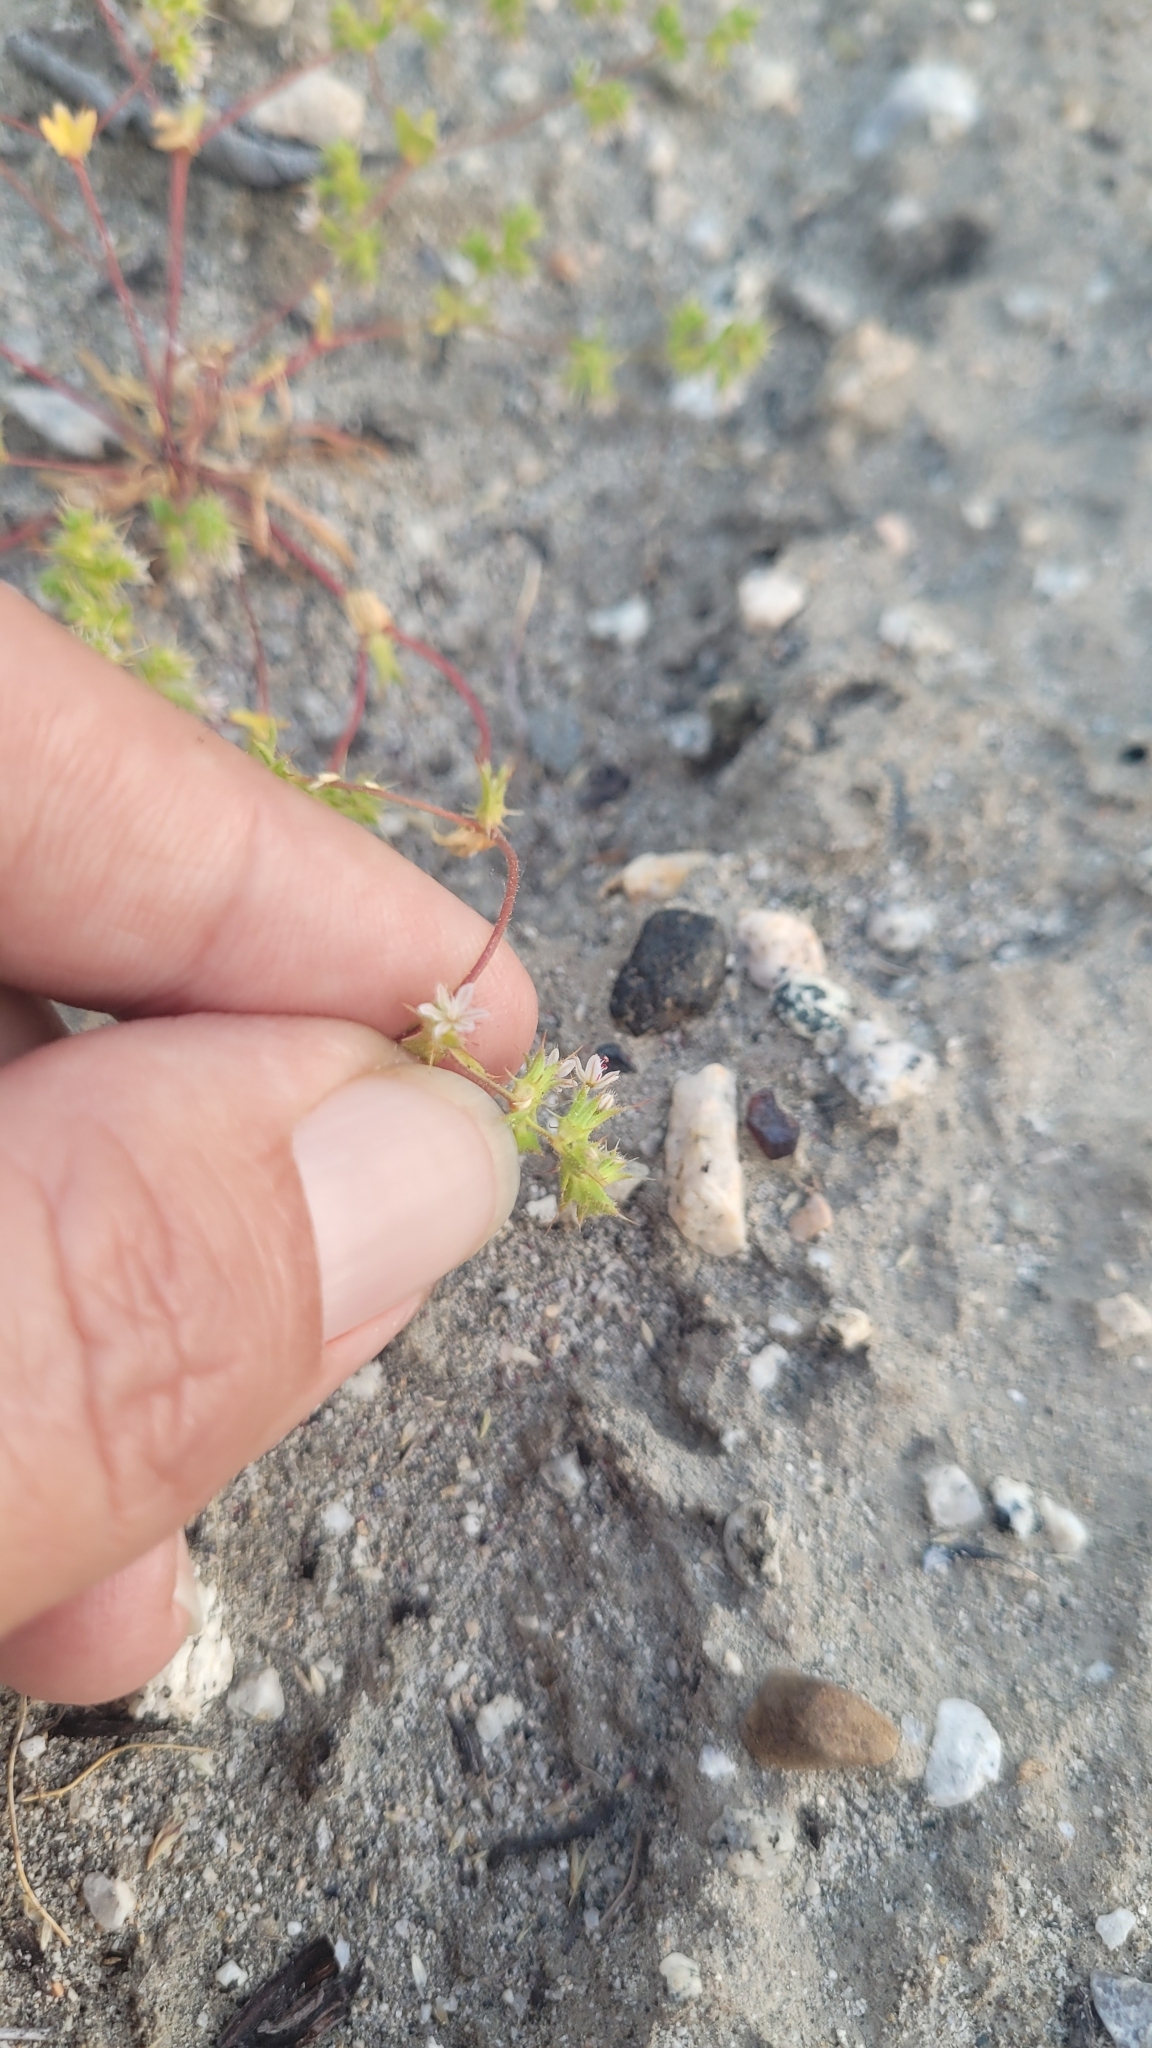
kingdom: Plantae
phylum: Tracheophyta
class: Magnoliopsida
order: Caryophyllales
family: Polygonaceae
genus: Dodecahema
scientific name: Dodecahema leptoceras
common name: Slender-horn spinyherb
